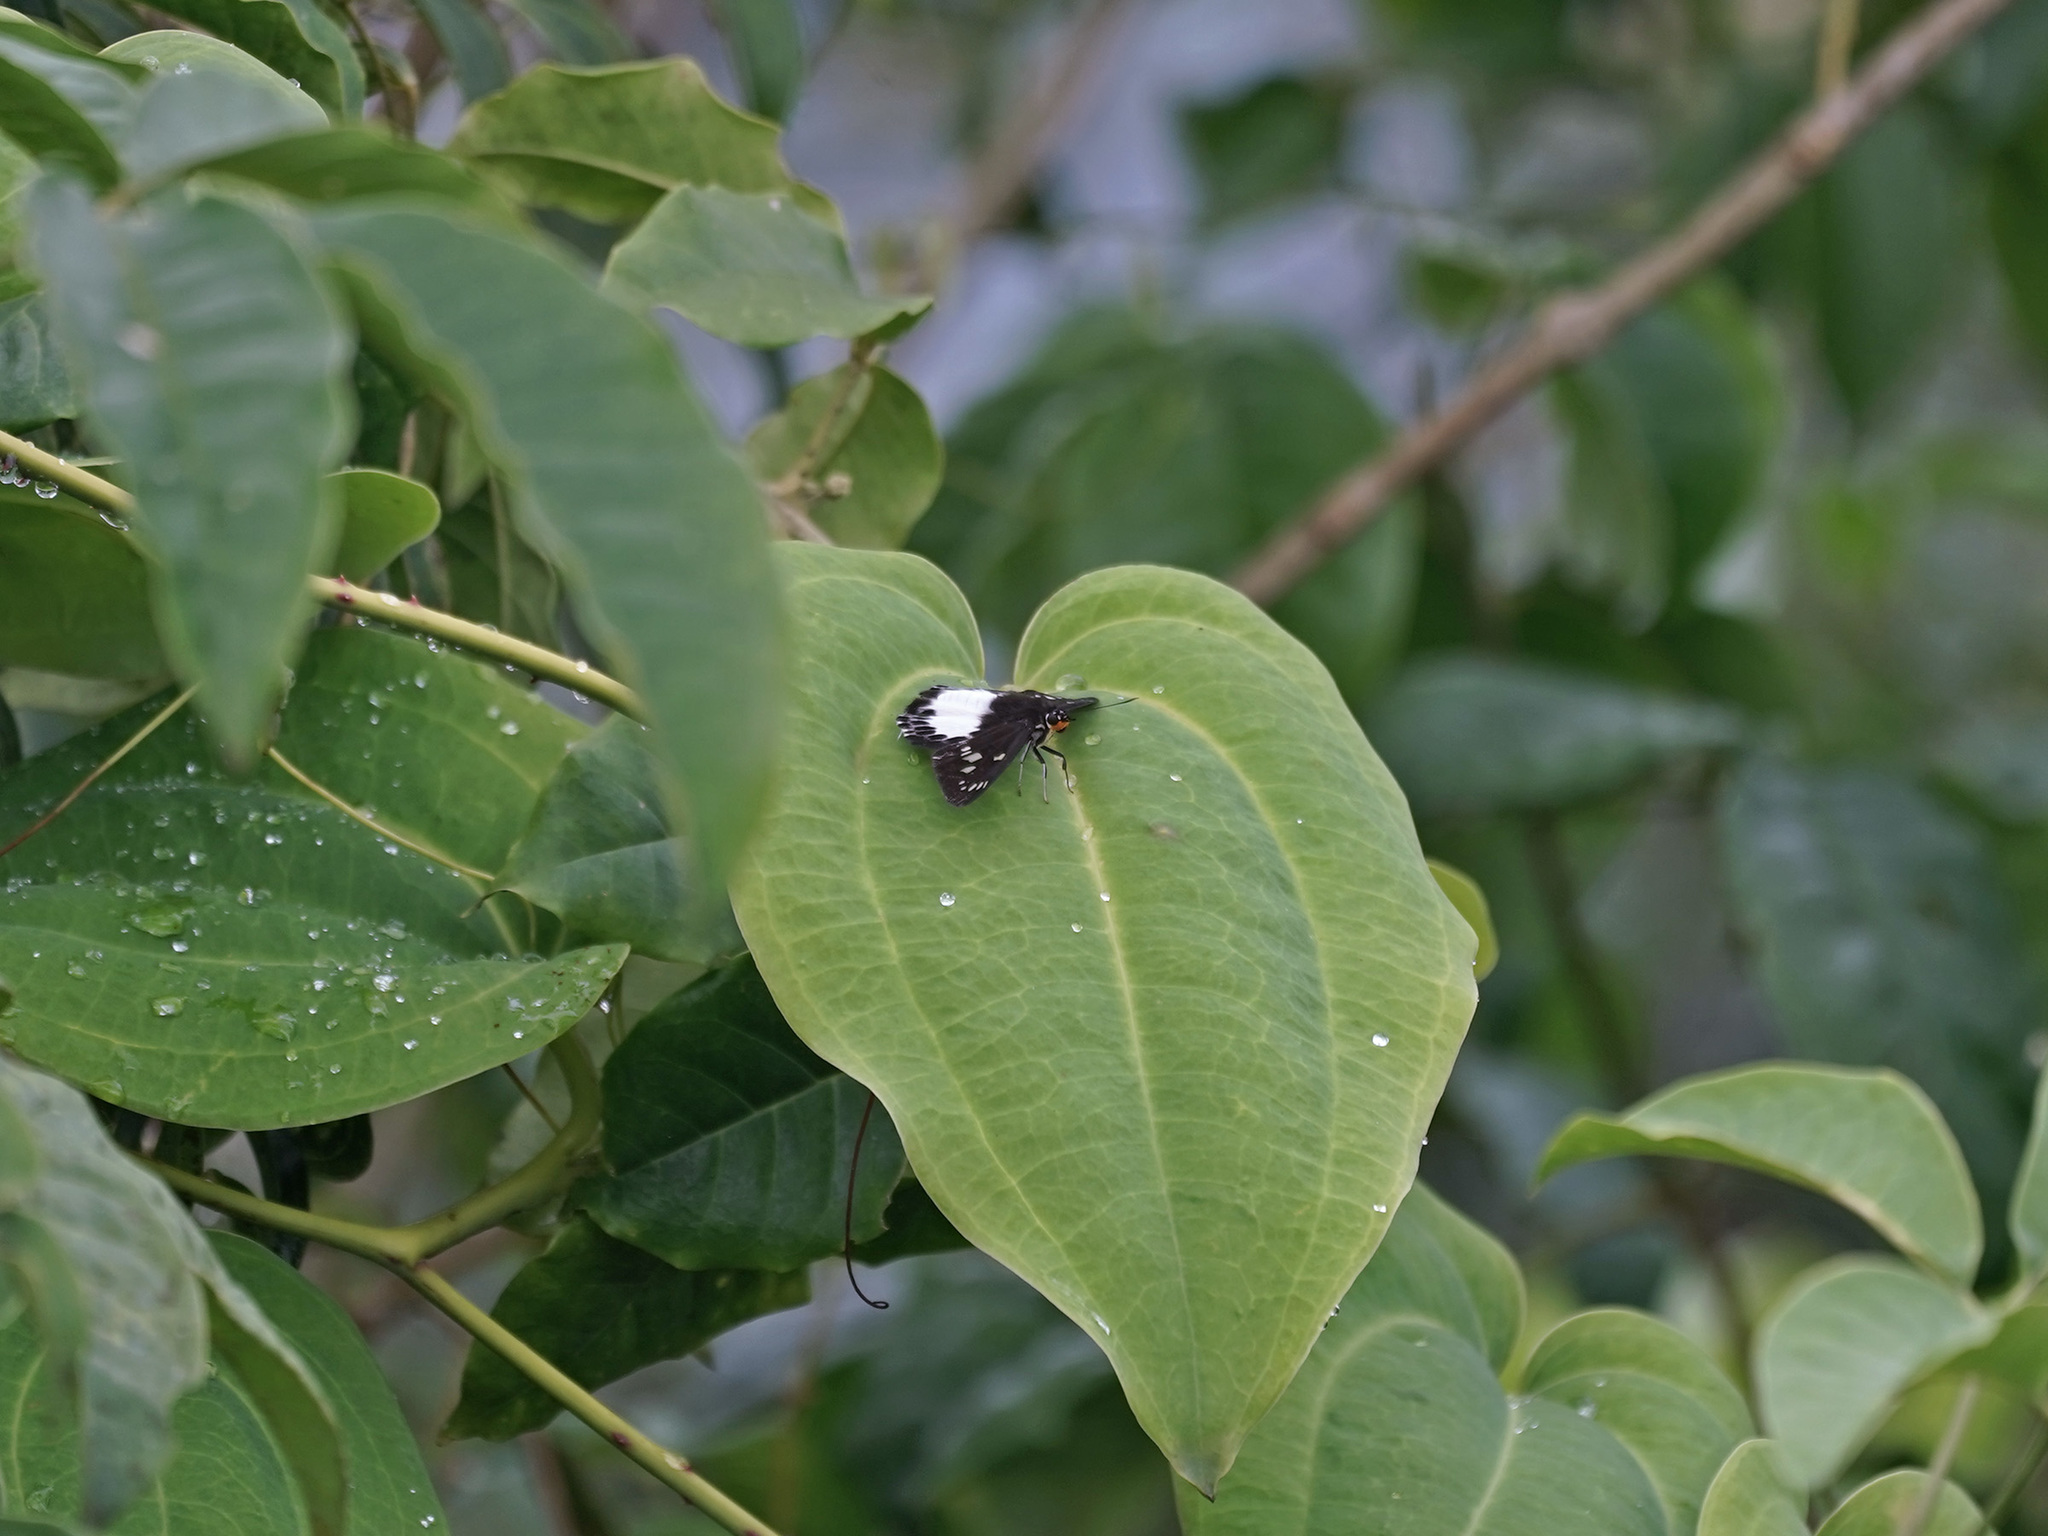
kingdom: Animalia
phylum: Arthropoda
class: Insecta
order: Lepidoptera
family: Hesperiidae
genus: Satarupa
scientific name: Satarupa gopala
